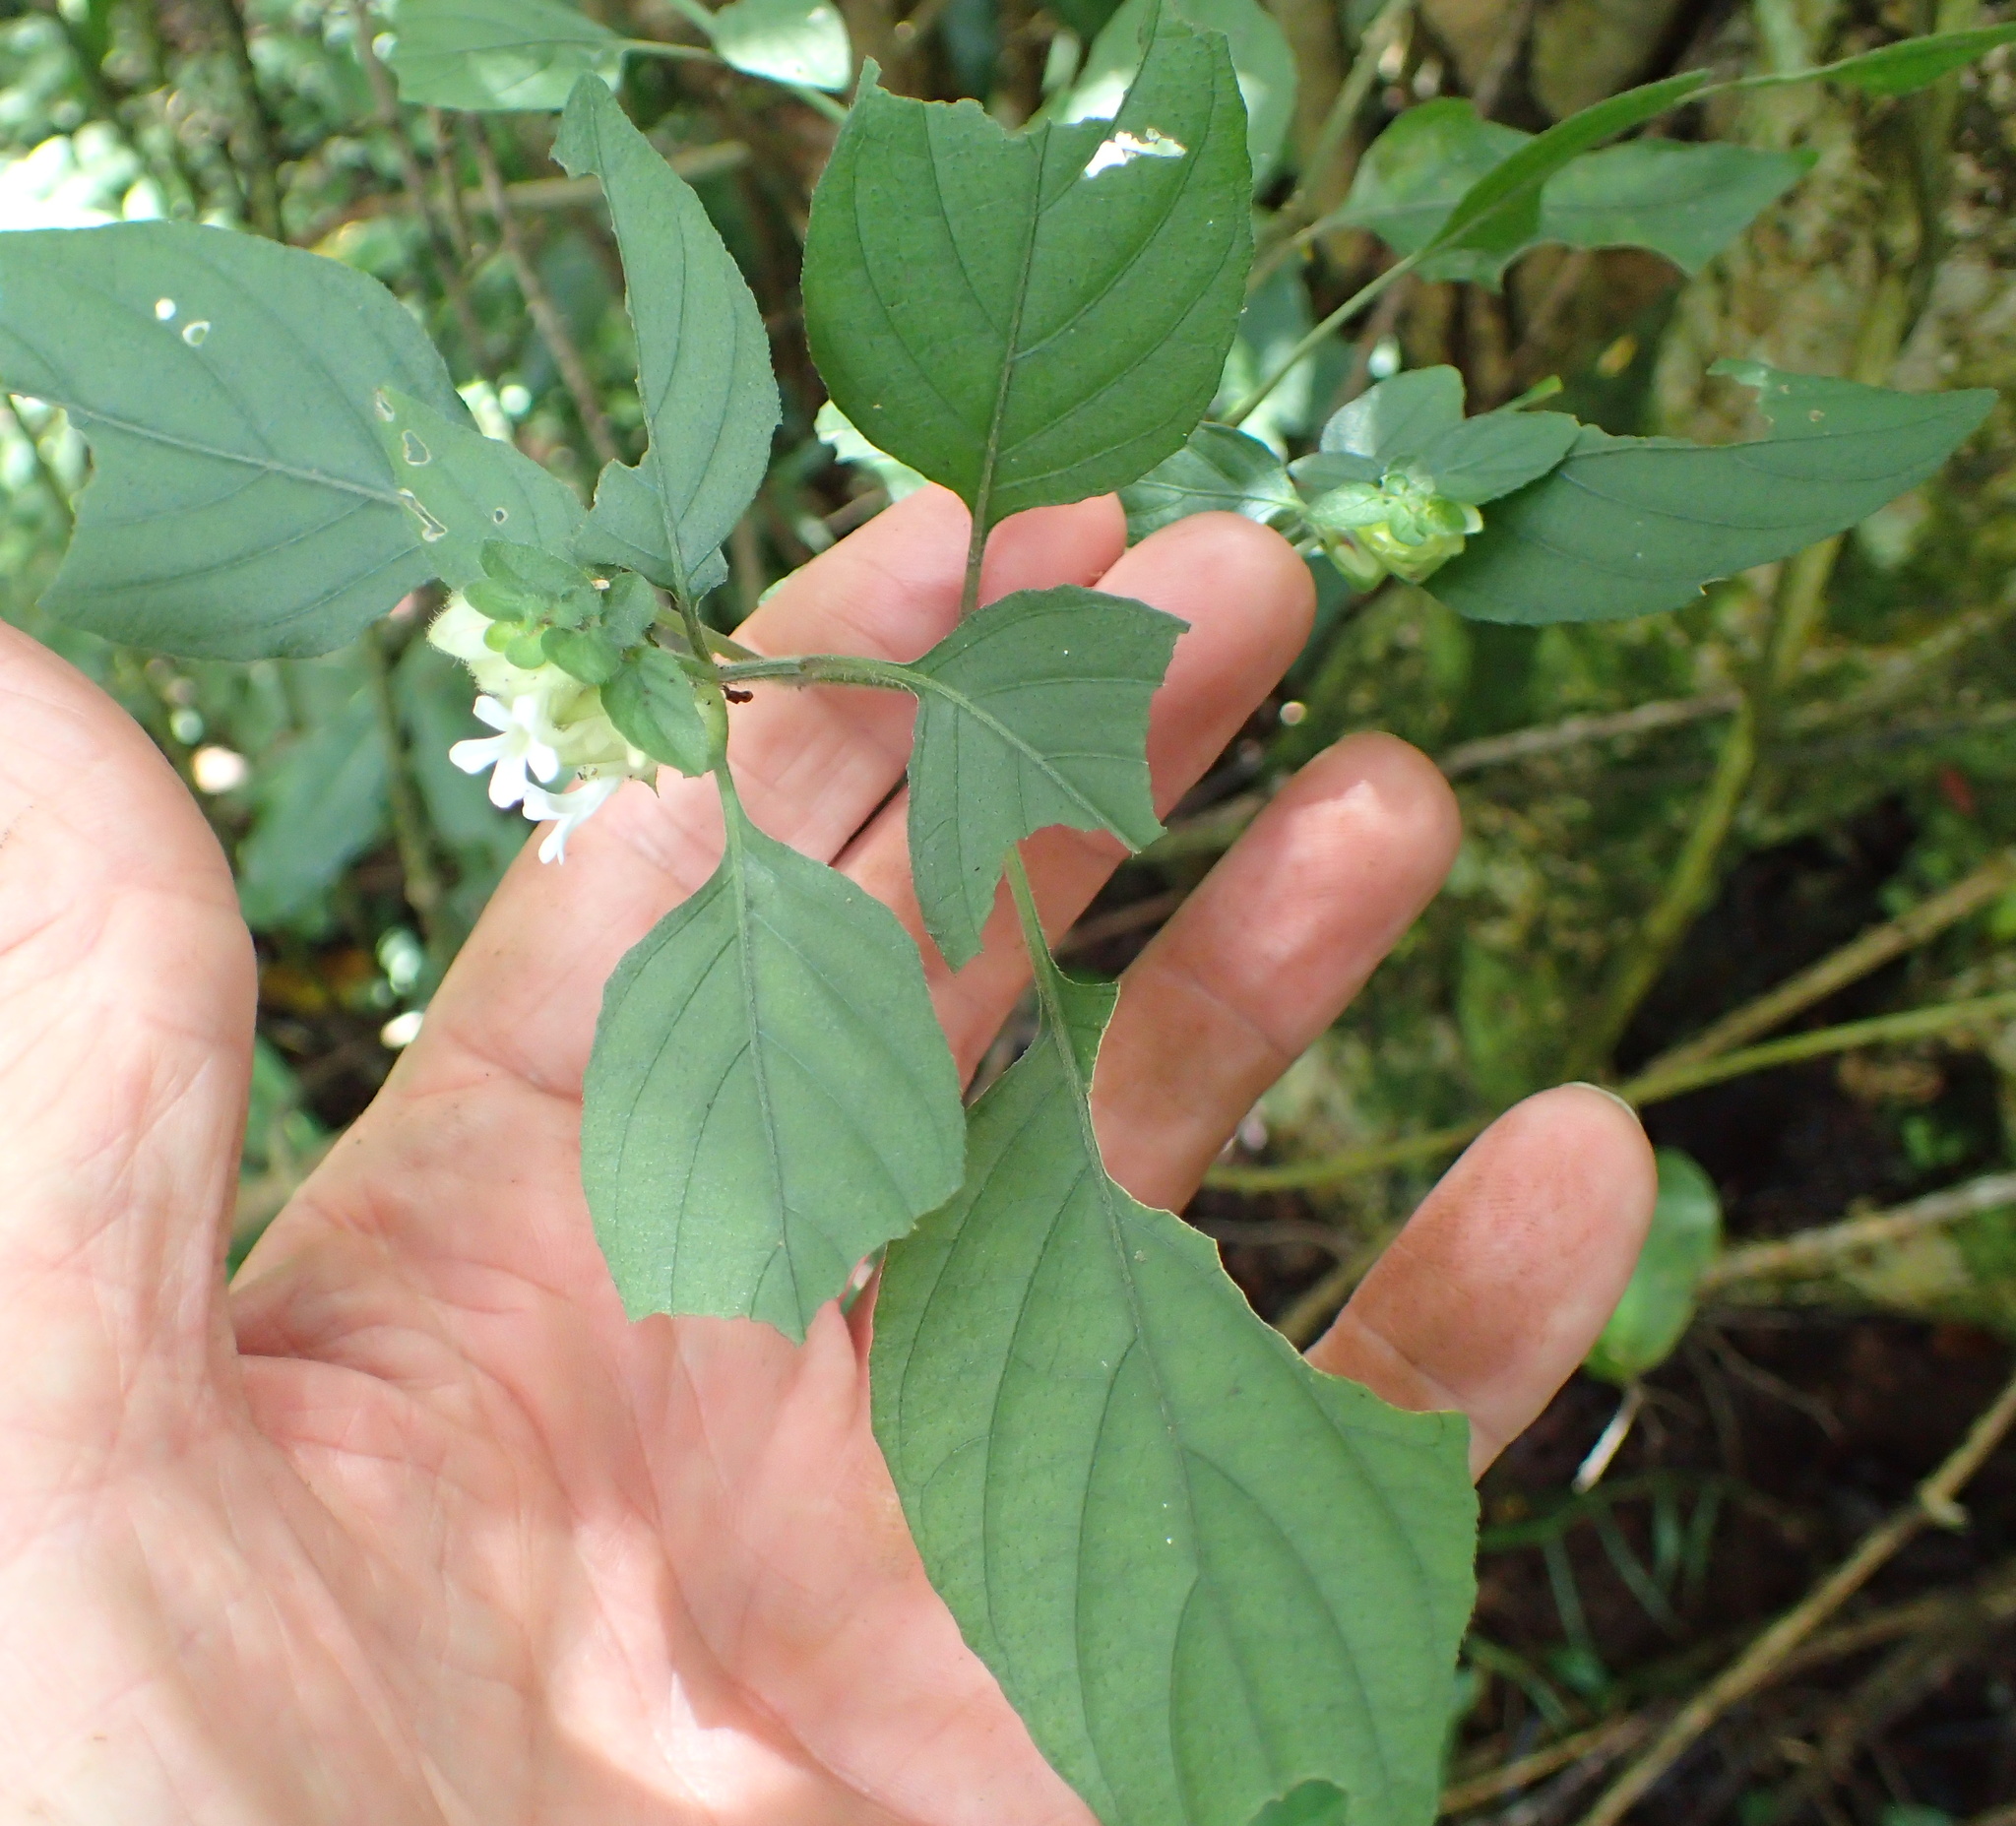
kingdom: Plantae
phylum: Tracheophyta
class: Magnoliopsida
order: Lamiales
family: Acanthaceae
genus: Phaulopsis
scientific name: Phaulopsis imbricata
